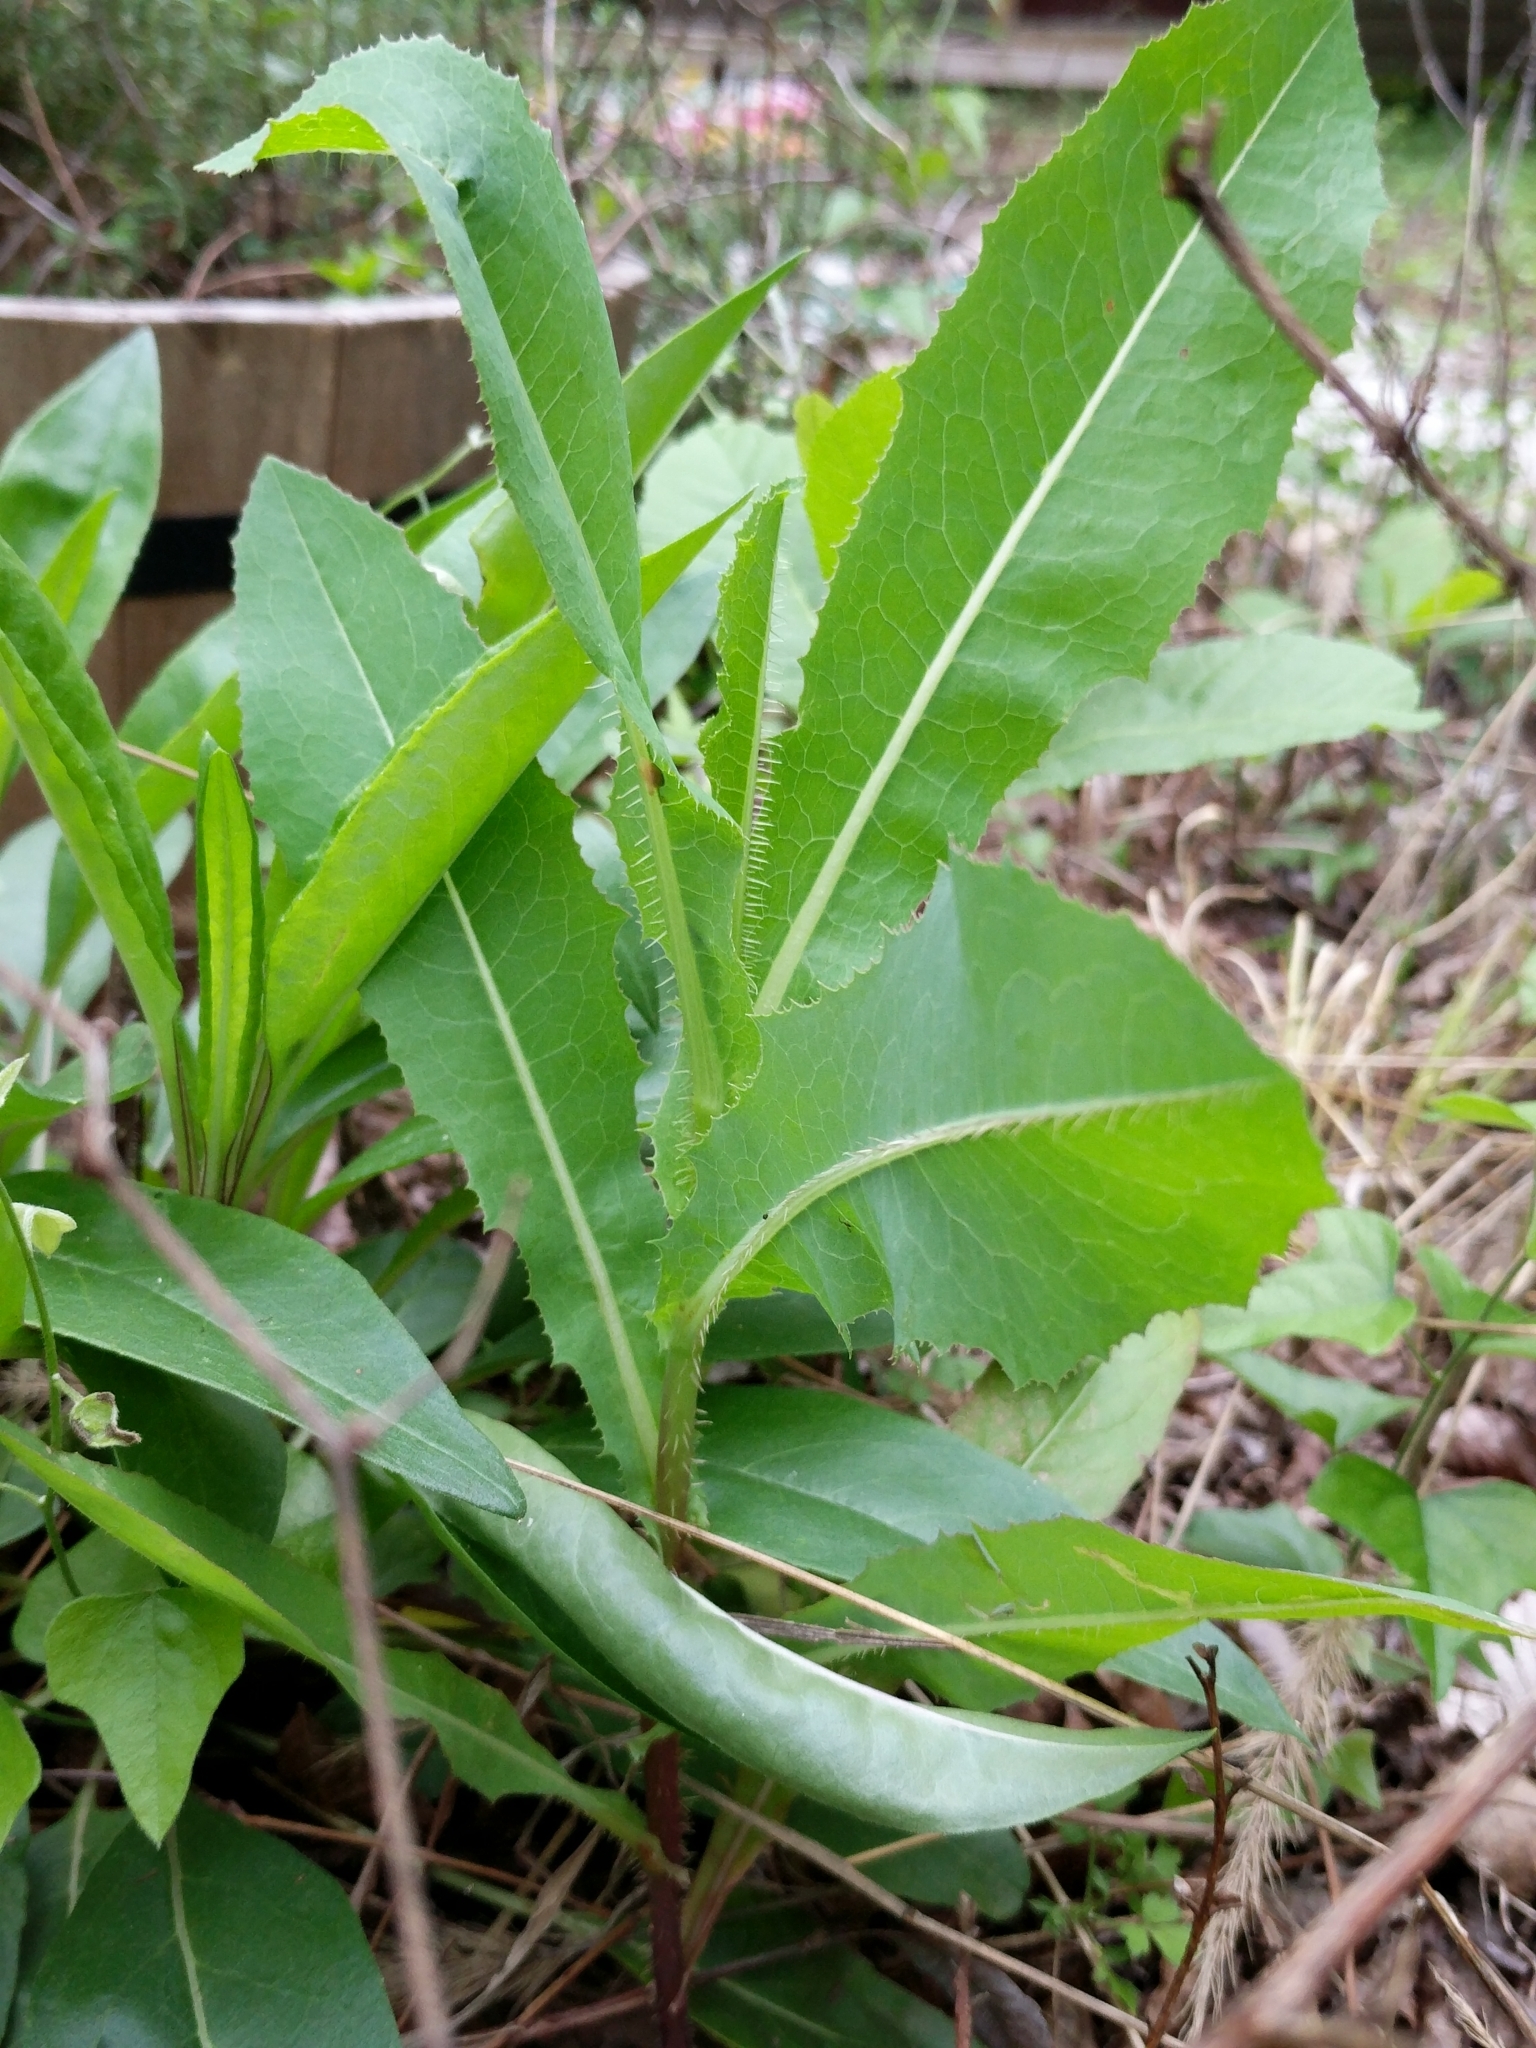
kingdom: Plantae
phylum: Tracheophyta
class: Magnoliopsida
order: Asterales
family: Asteraceae
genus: Lactuca
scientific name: Lactuca serriola
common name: Prickly lettuce
